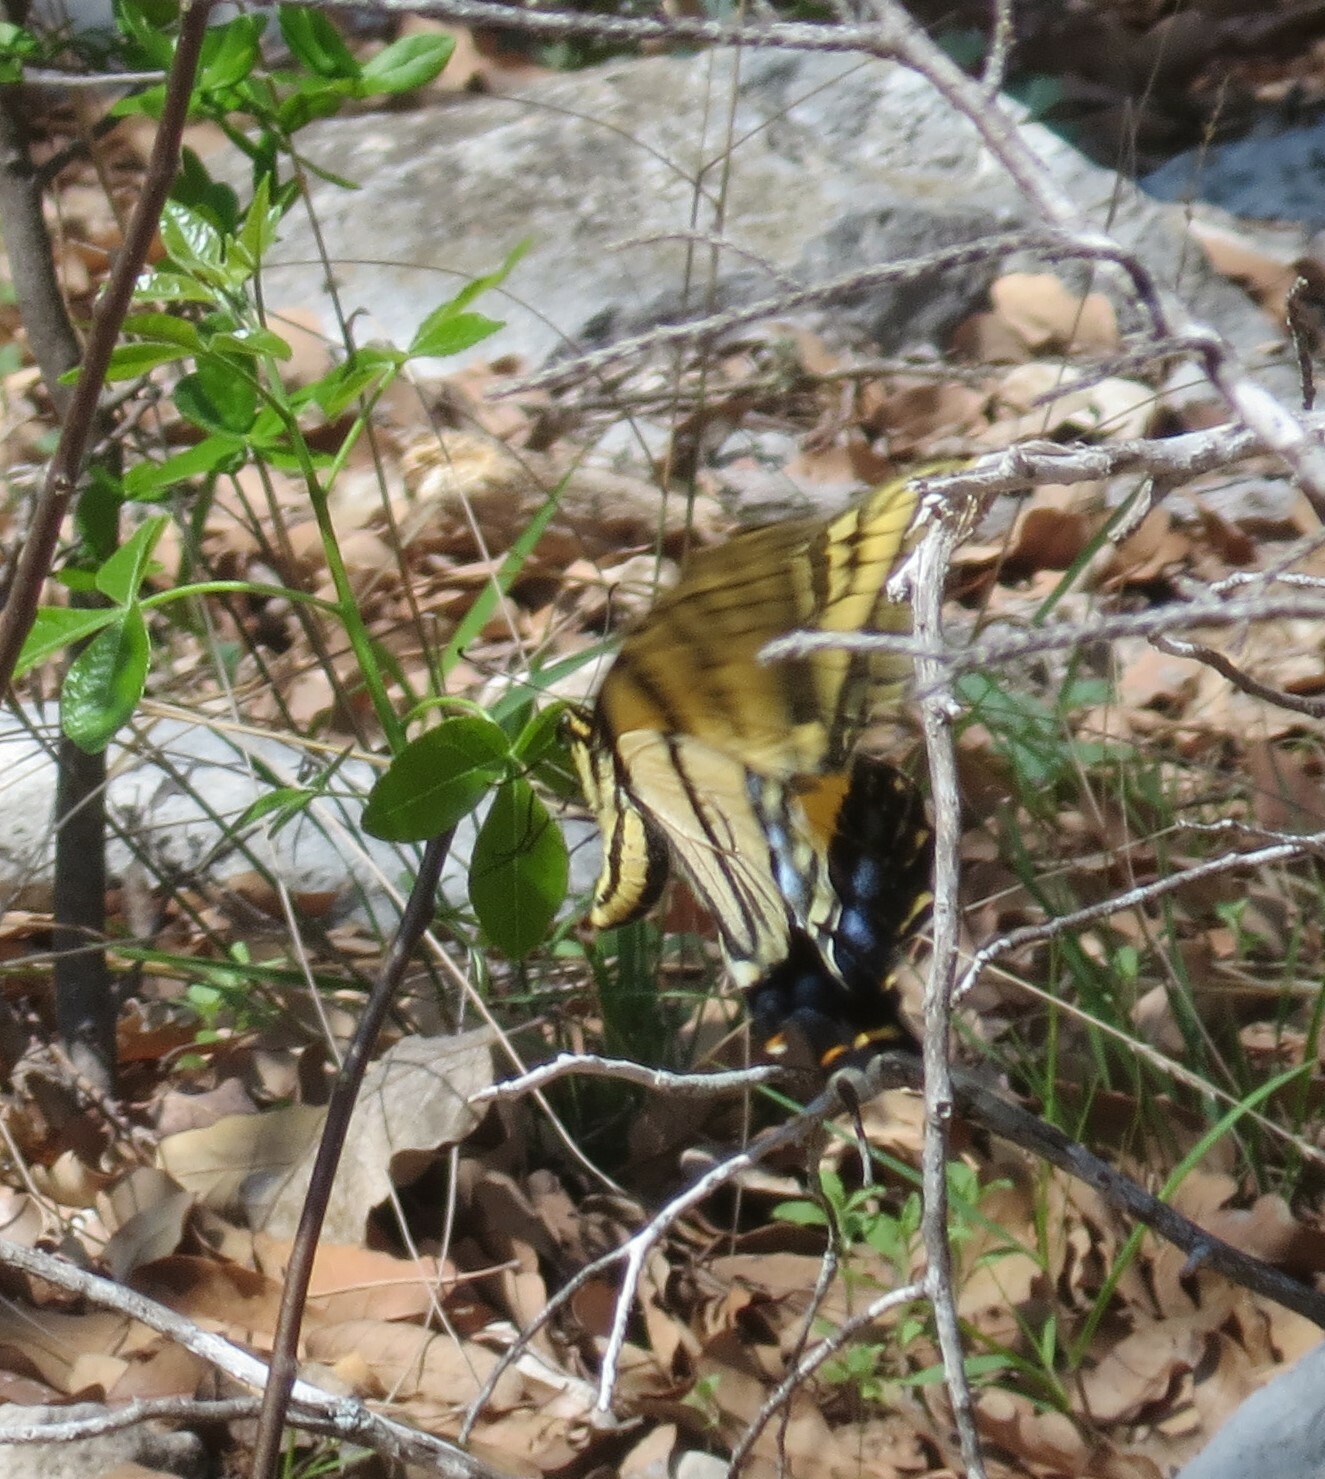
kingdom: Animalia
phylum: Arthropoda
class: Insecta
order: Lepidoptera
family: Papilionidae
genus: Papilio
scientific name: Papilio multicaudata
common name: Two-tailed tiger swallowtail
